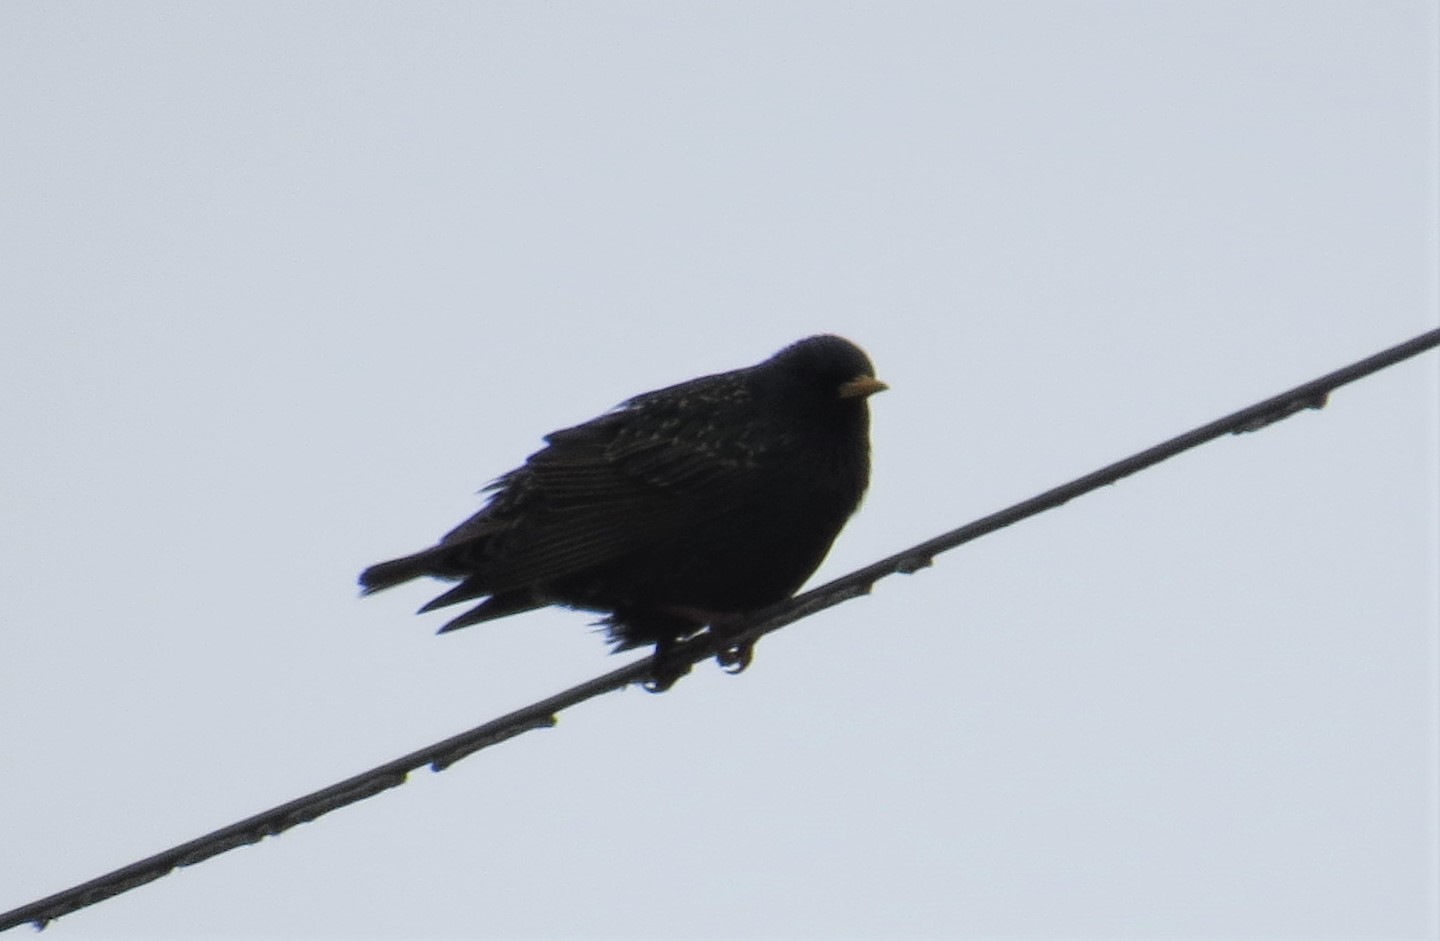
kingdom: Animalia
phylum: Chordata
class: Aves
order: Passeriformes
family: Sturnidae
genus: Sturnus
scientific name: Sturnus vulgaris
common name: Common starling
